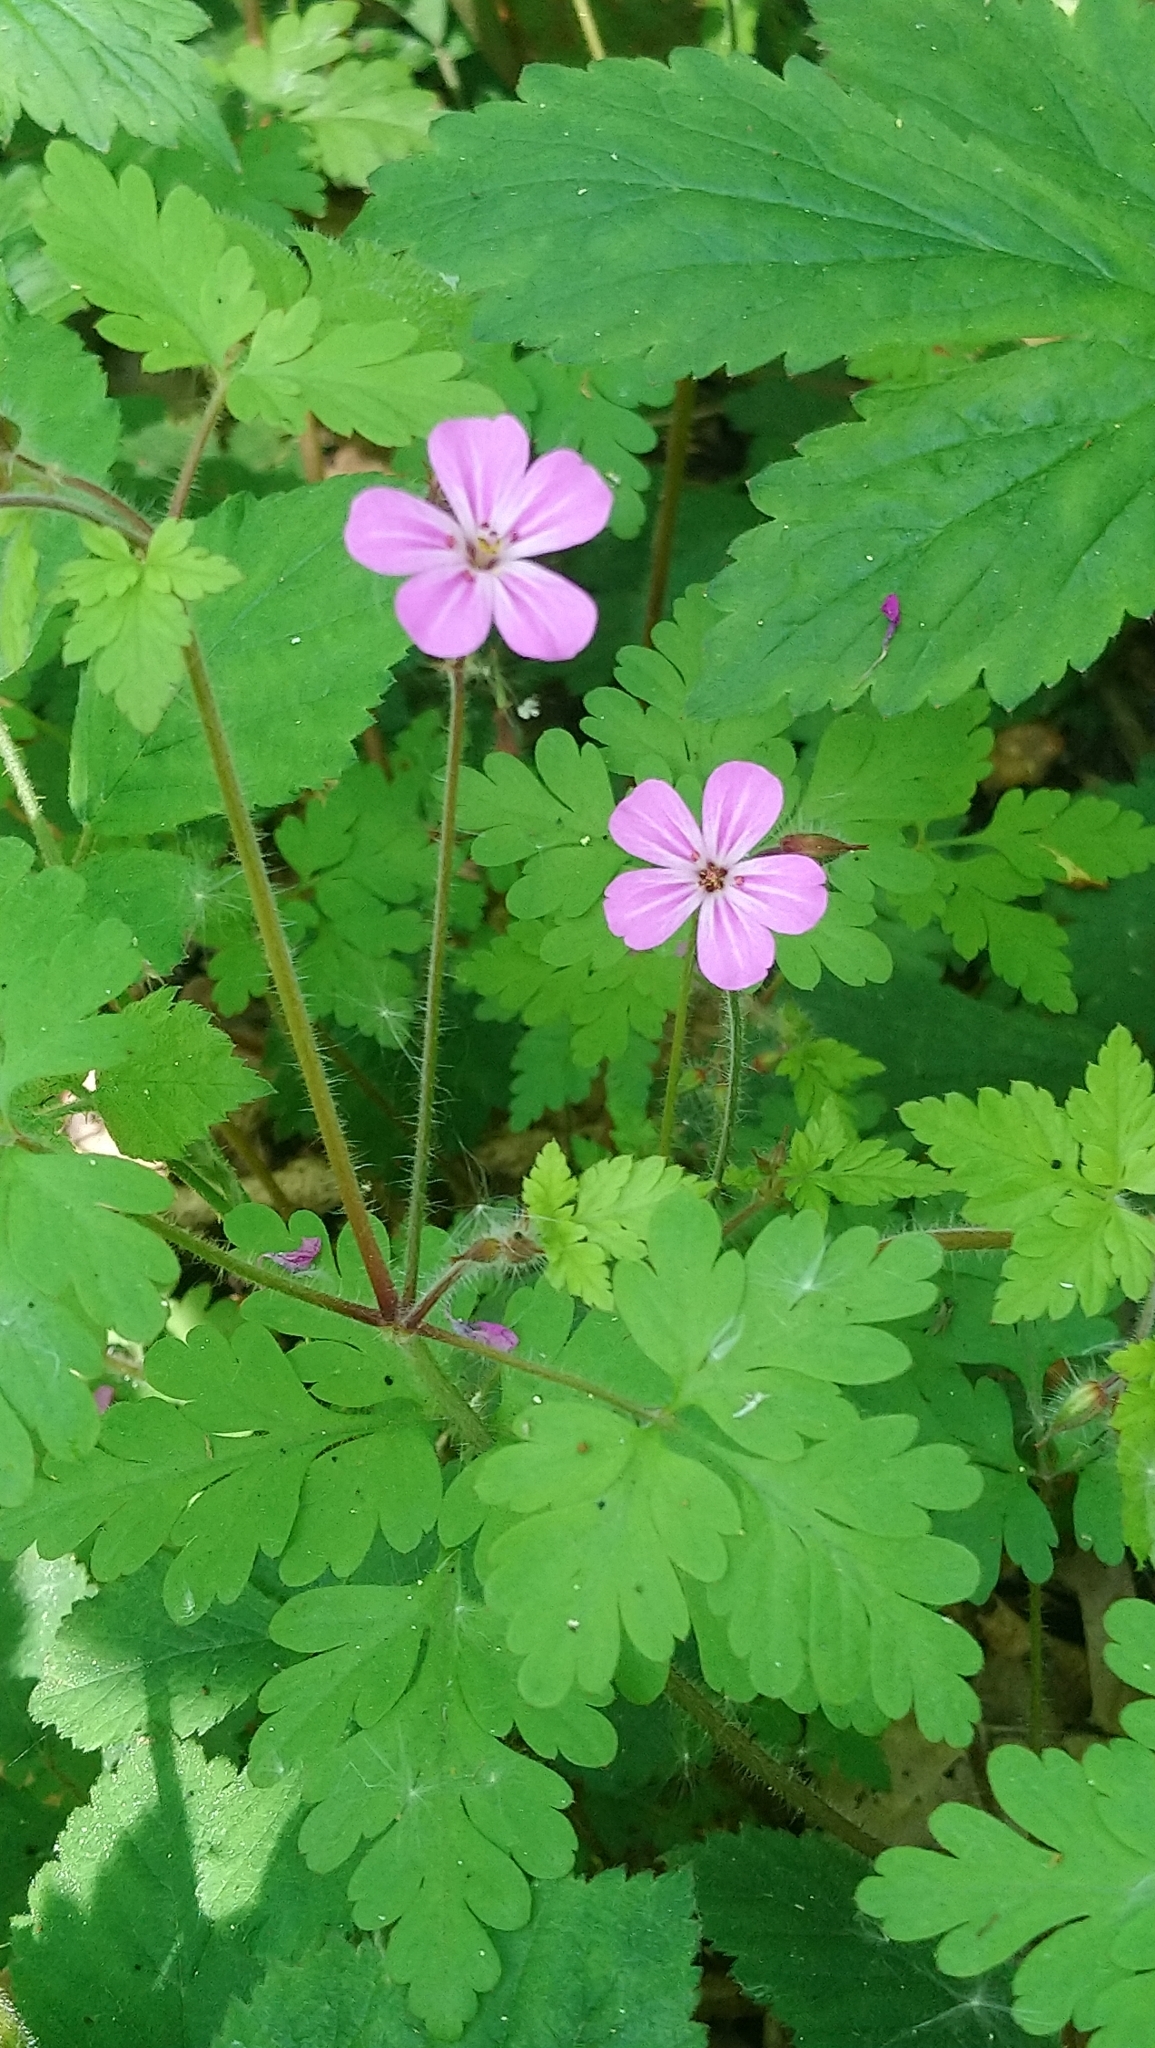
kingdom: Plantae
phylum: Tracheophyta
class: Magnoliopsida
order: Geraniales
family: Geraniaceae
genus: Geranium
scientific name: Geranium robertianum
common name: Herb-robert
